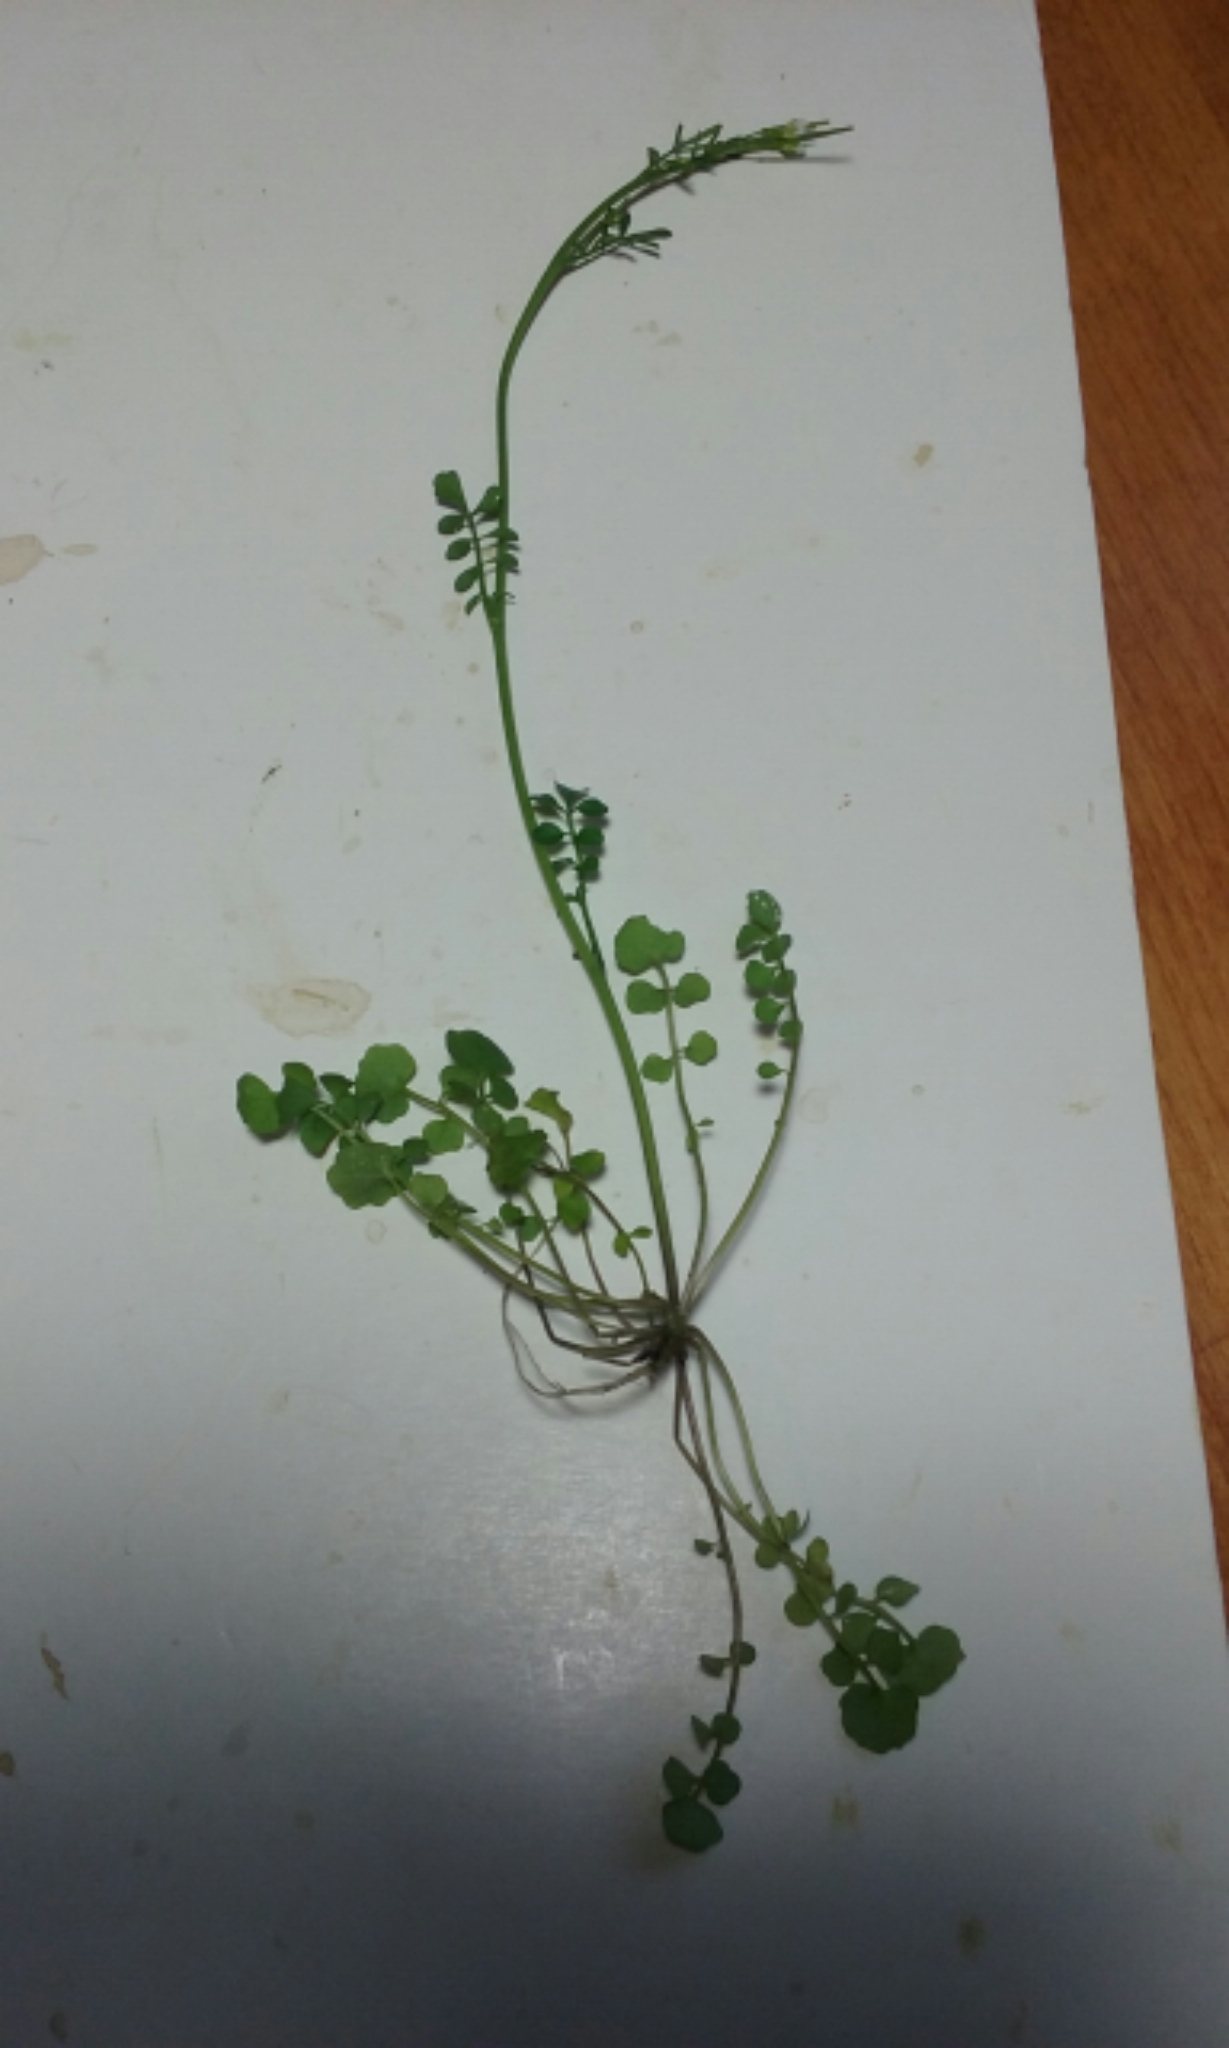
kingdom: Plantae
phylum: Tracheophyta
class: Magnoliopsida
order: Brassicales
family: Brassicaceae
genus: Cardamine
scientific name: Cardamine hirsuta
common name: Hairy bittercress
